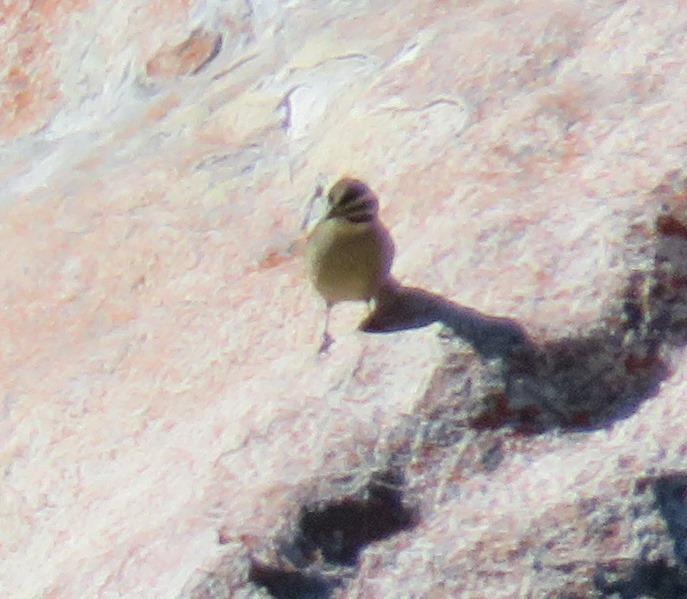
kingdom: Animalia
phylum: Chordata
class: Aves
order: Passeriformes
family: Emberizidae
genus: Emberiza
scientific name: Emberiza capensis
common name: Cape bunting
